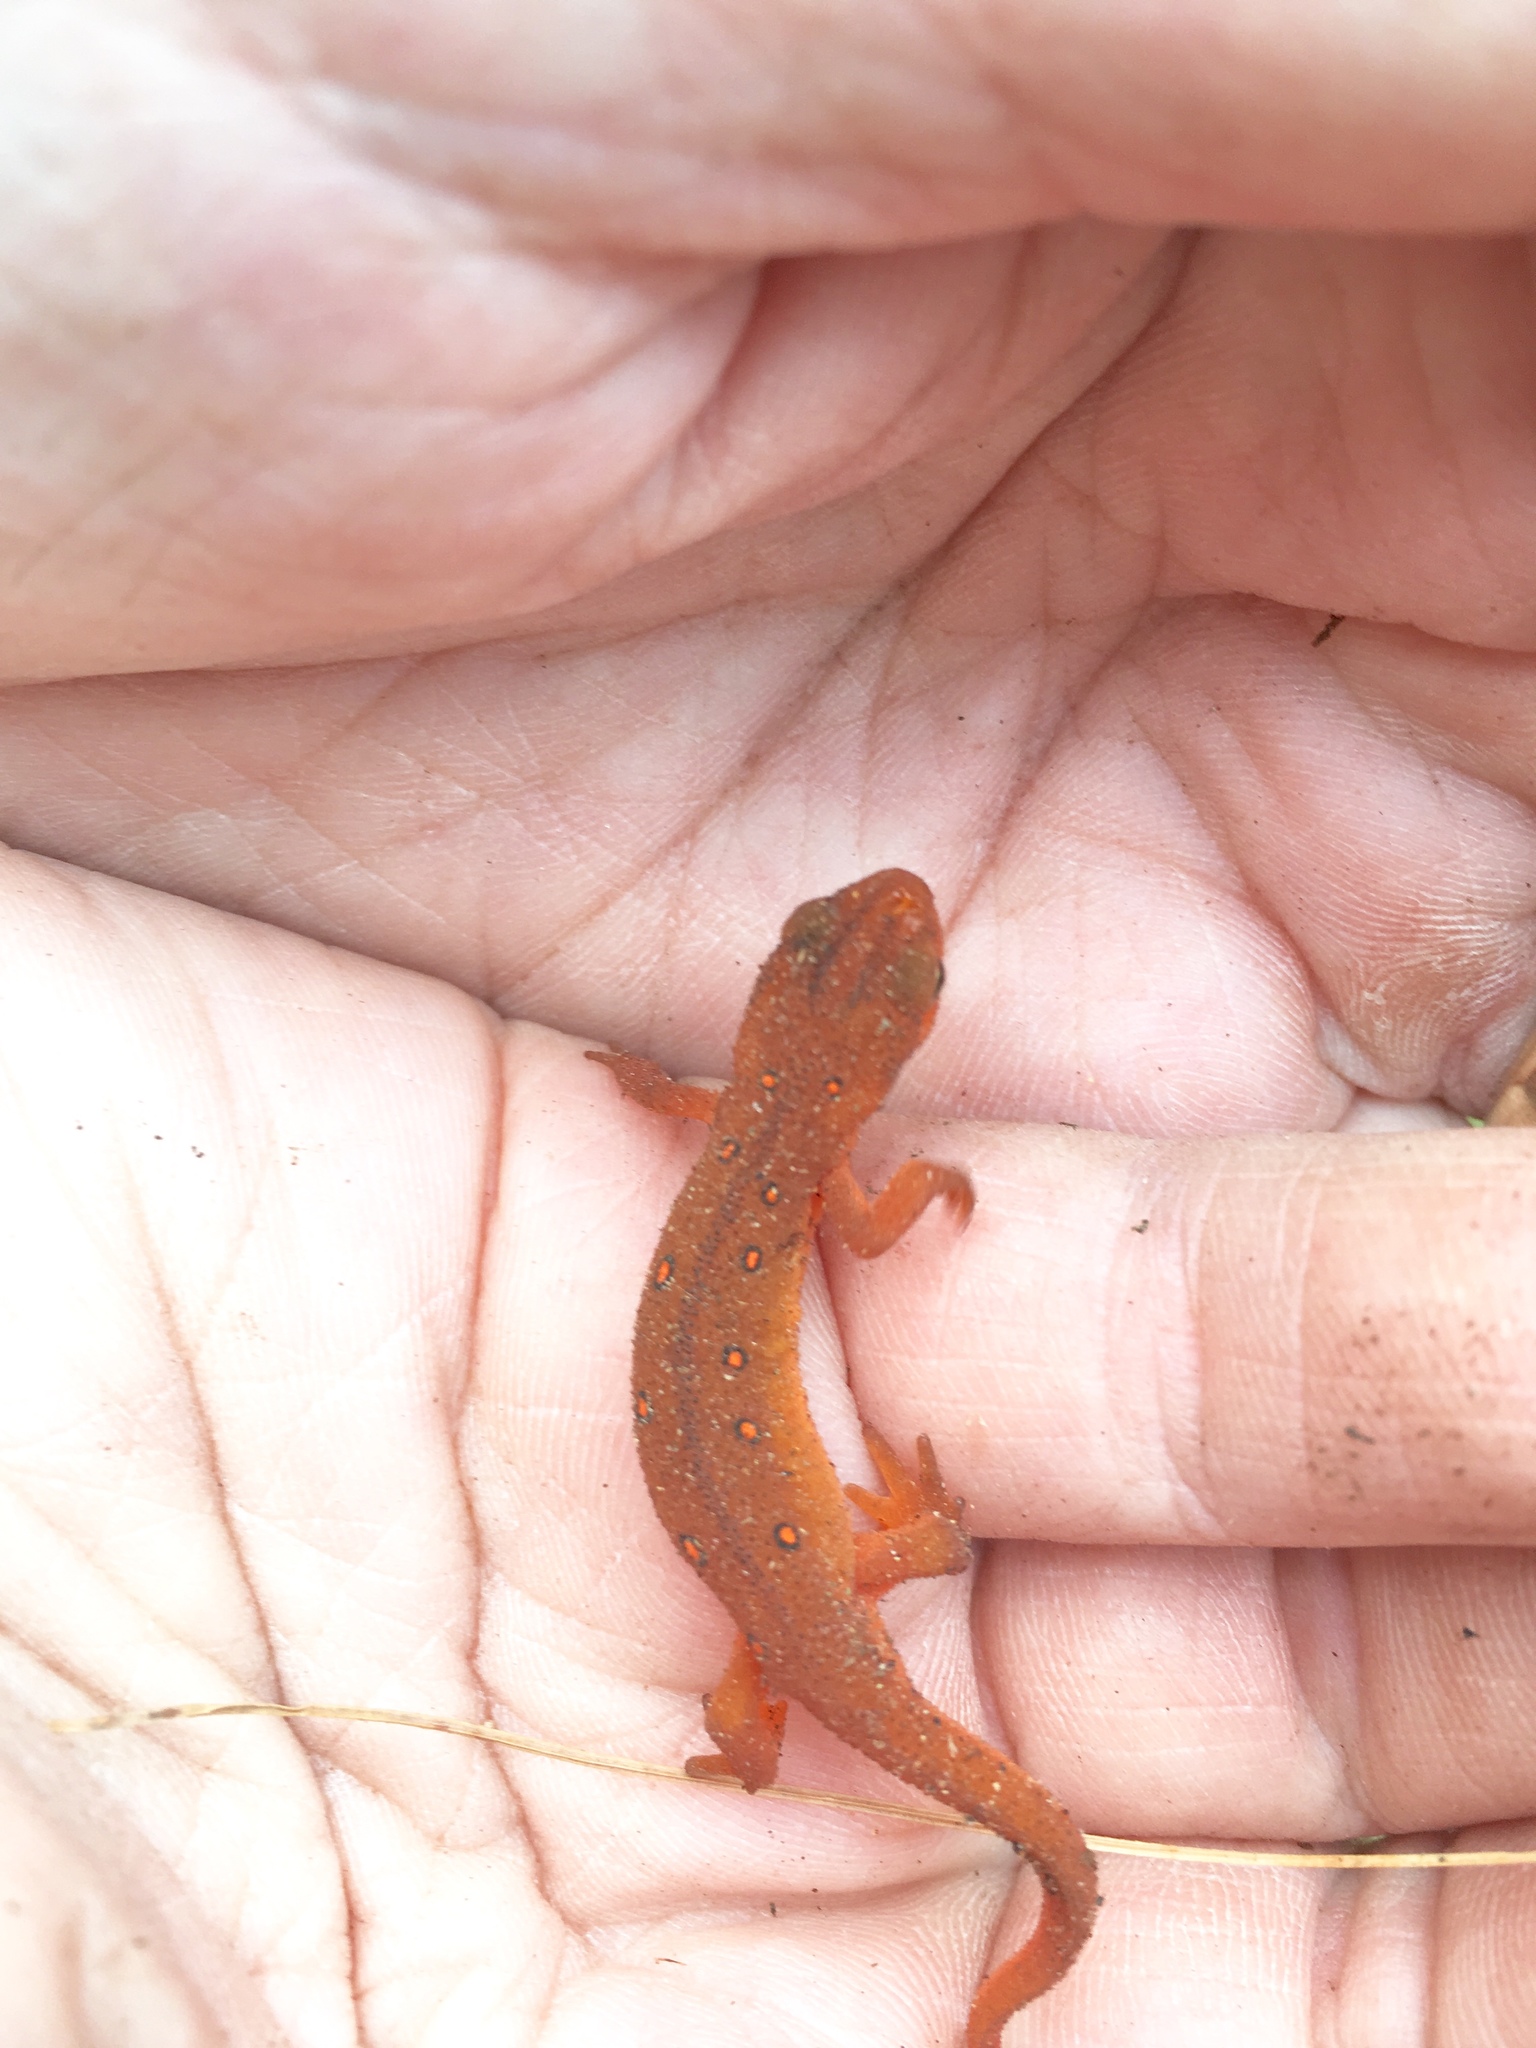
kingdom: Animalia
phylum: Chordata
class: Amphibia
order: Caudata
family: Salamandridae
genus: Notophthalmus
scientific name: Notophthalmus viridescens
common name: Eastern newt
